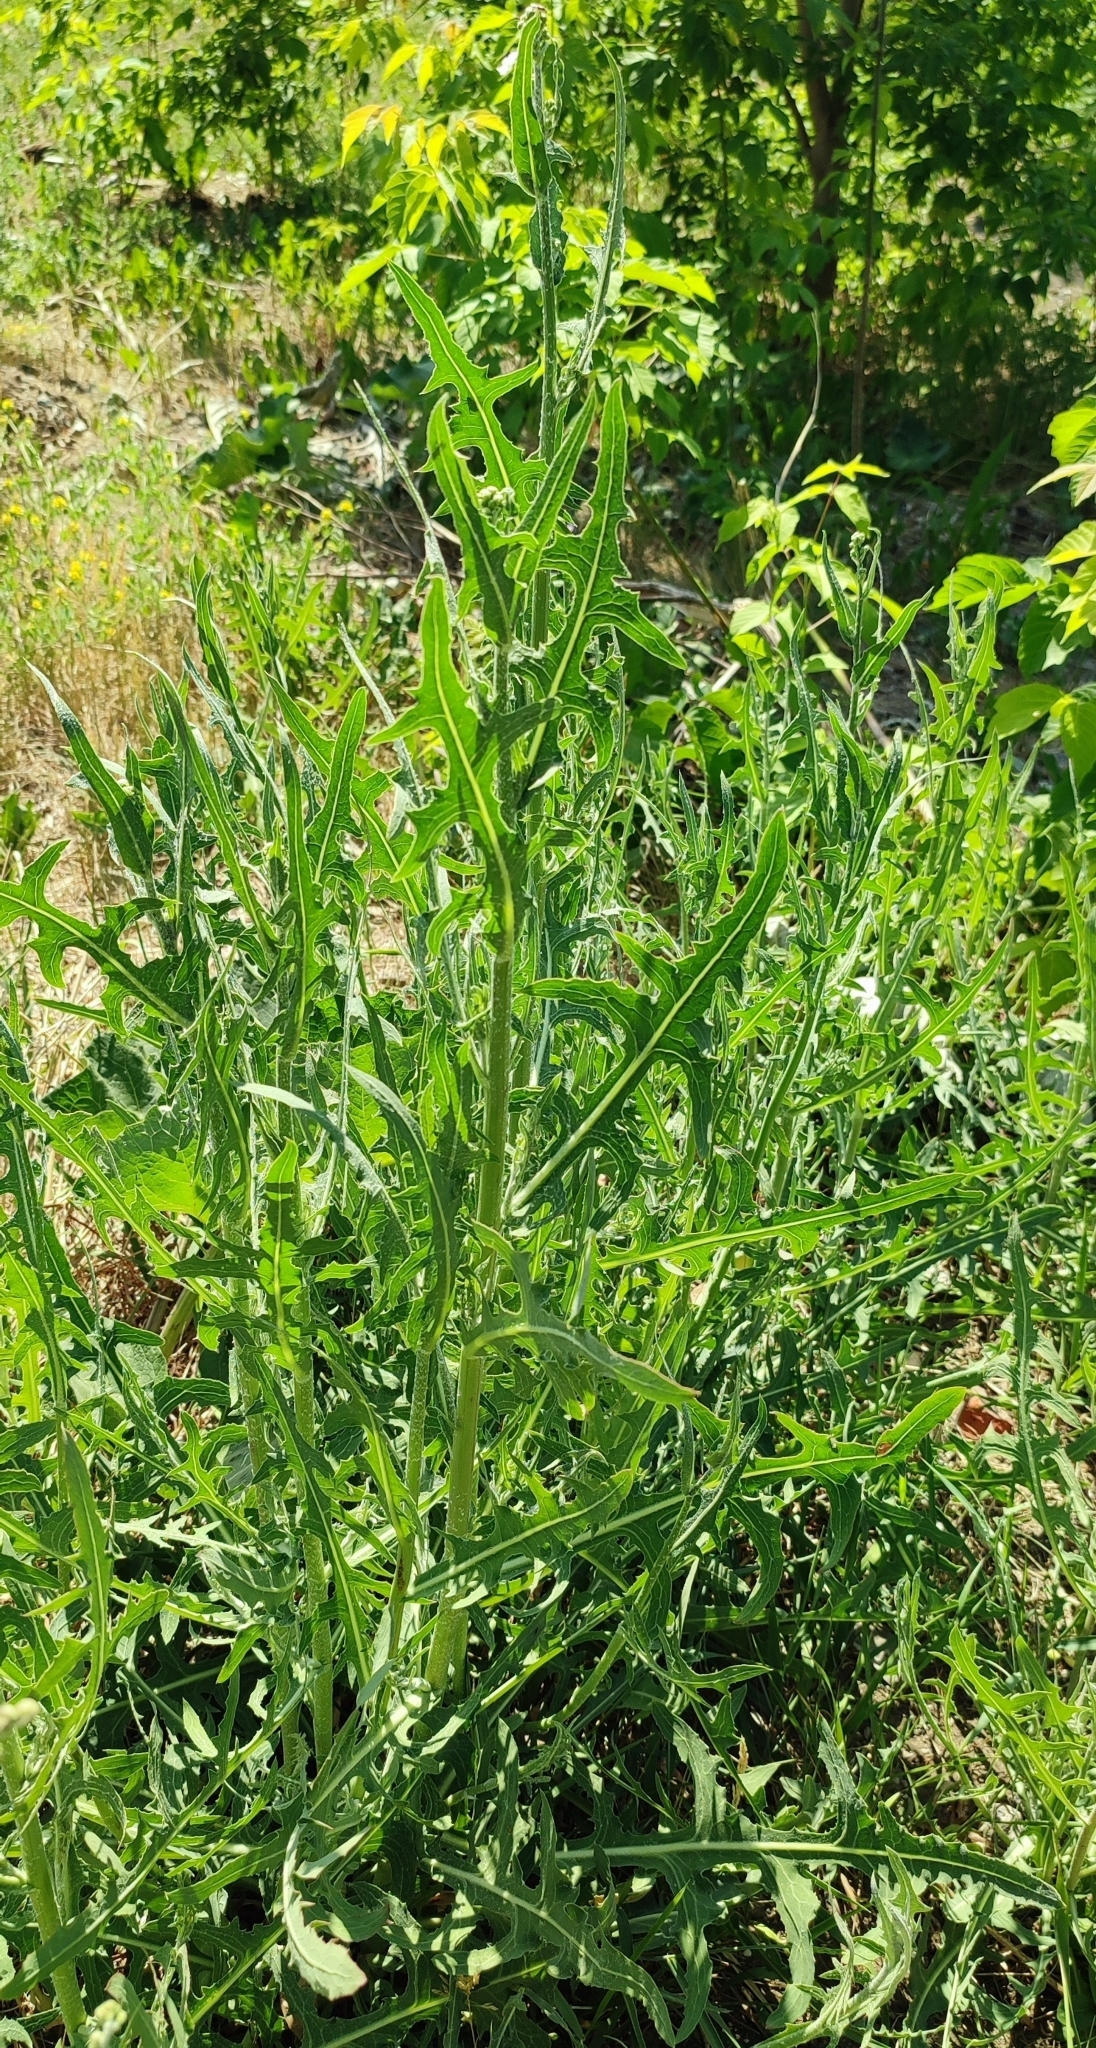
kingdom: Plantae
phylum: Tracheophyta
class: Magnoliopsida
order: Asterales
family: Asteraceae
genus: Lactuca
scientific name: Lactuca tatarica
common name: Blue lettuce
